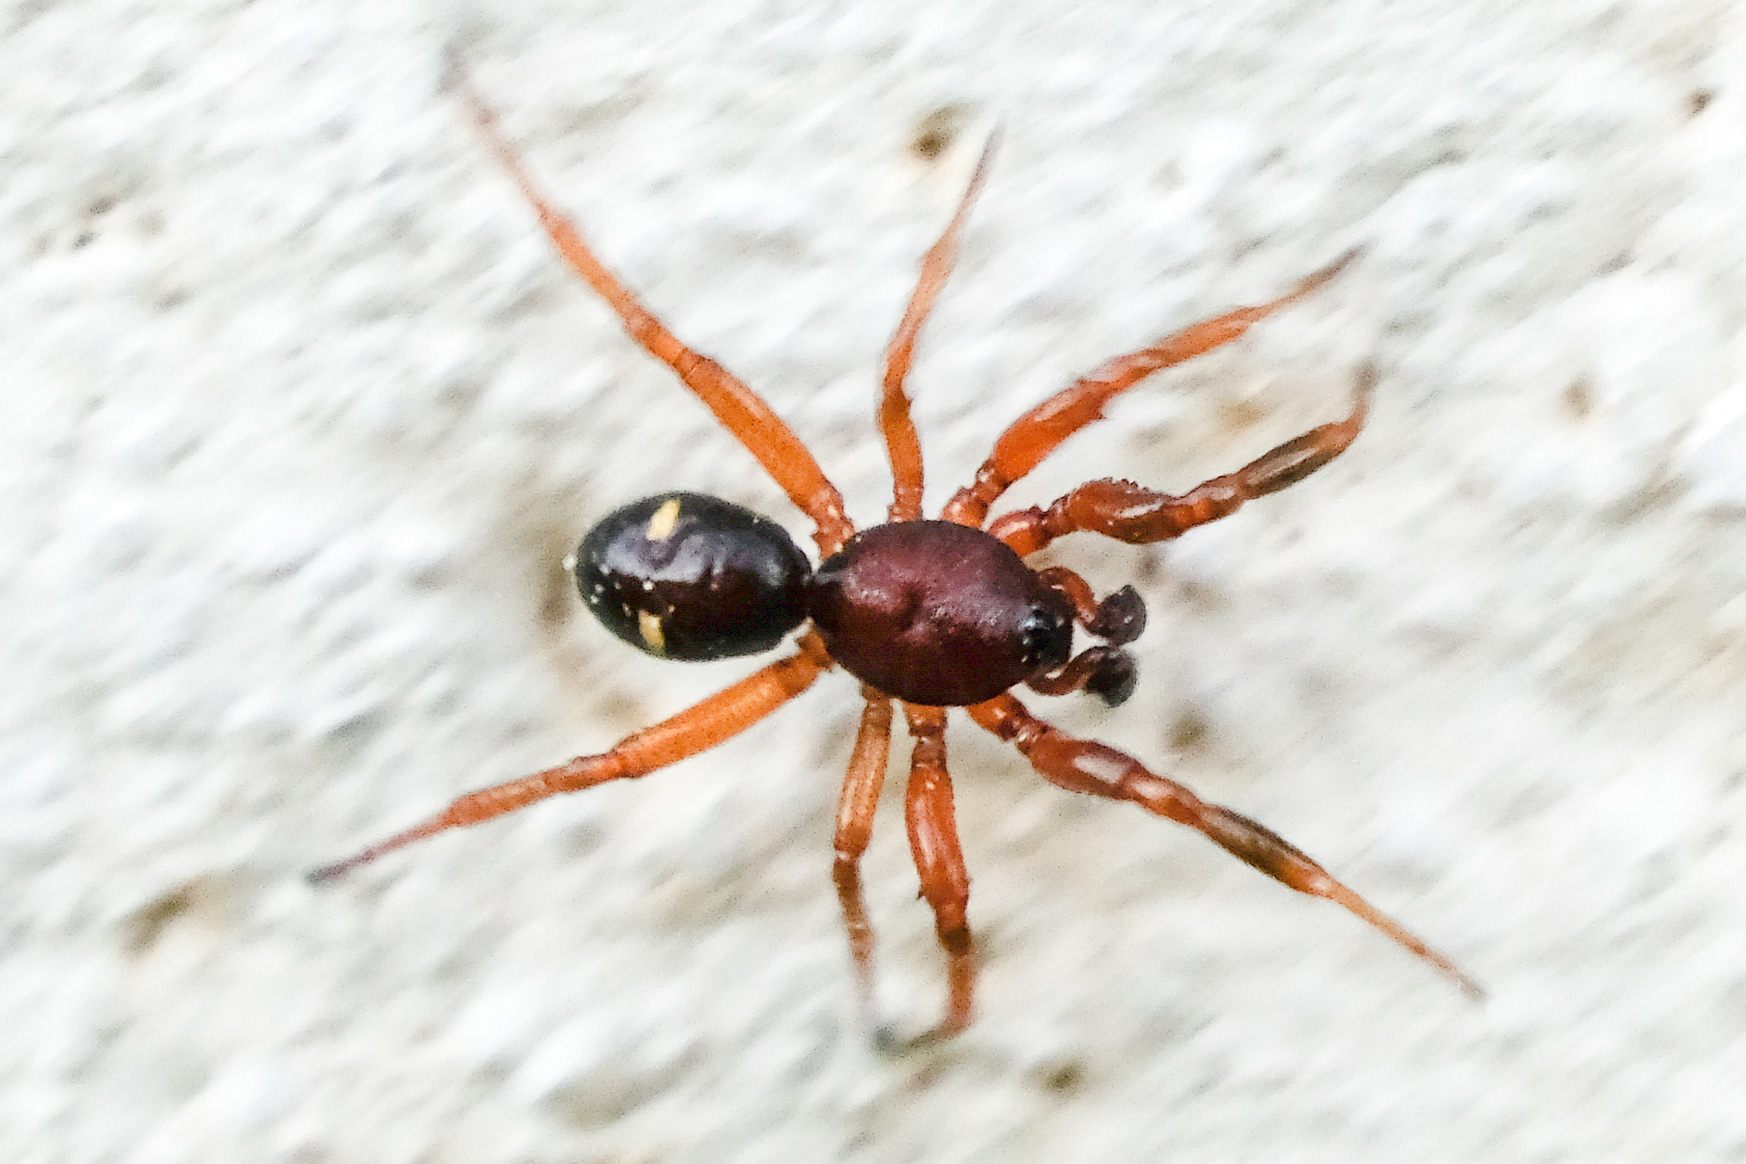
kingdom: Animalia
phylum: Arthropoda
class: Arachnida
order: Araneae
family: Theridiidae
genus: Asagena
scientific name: Asagena americana
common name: Two-spotted cobweb spider
